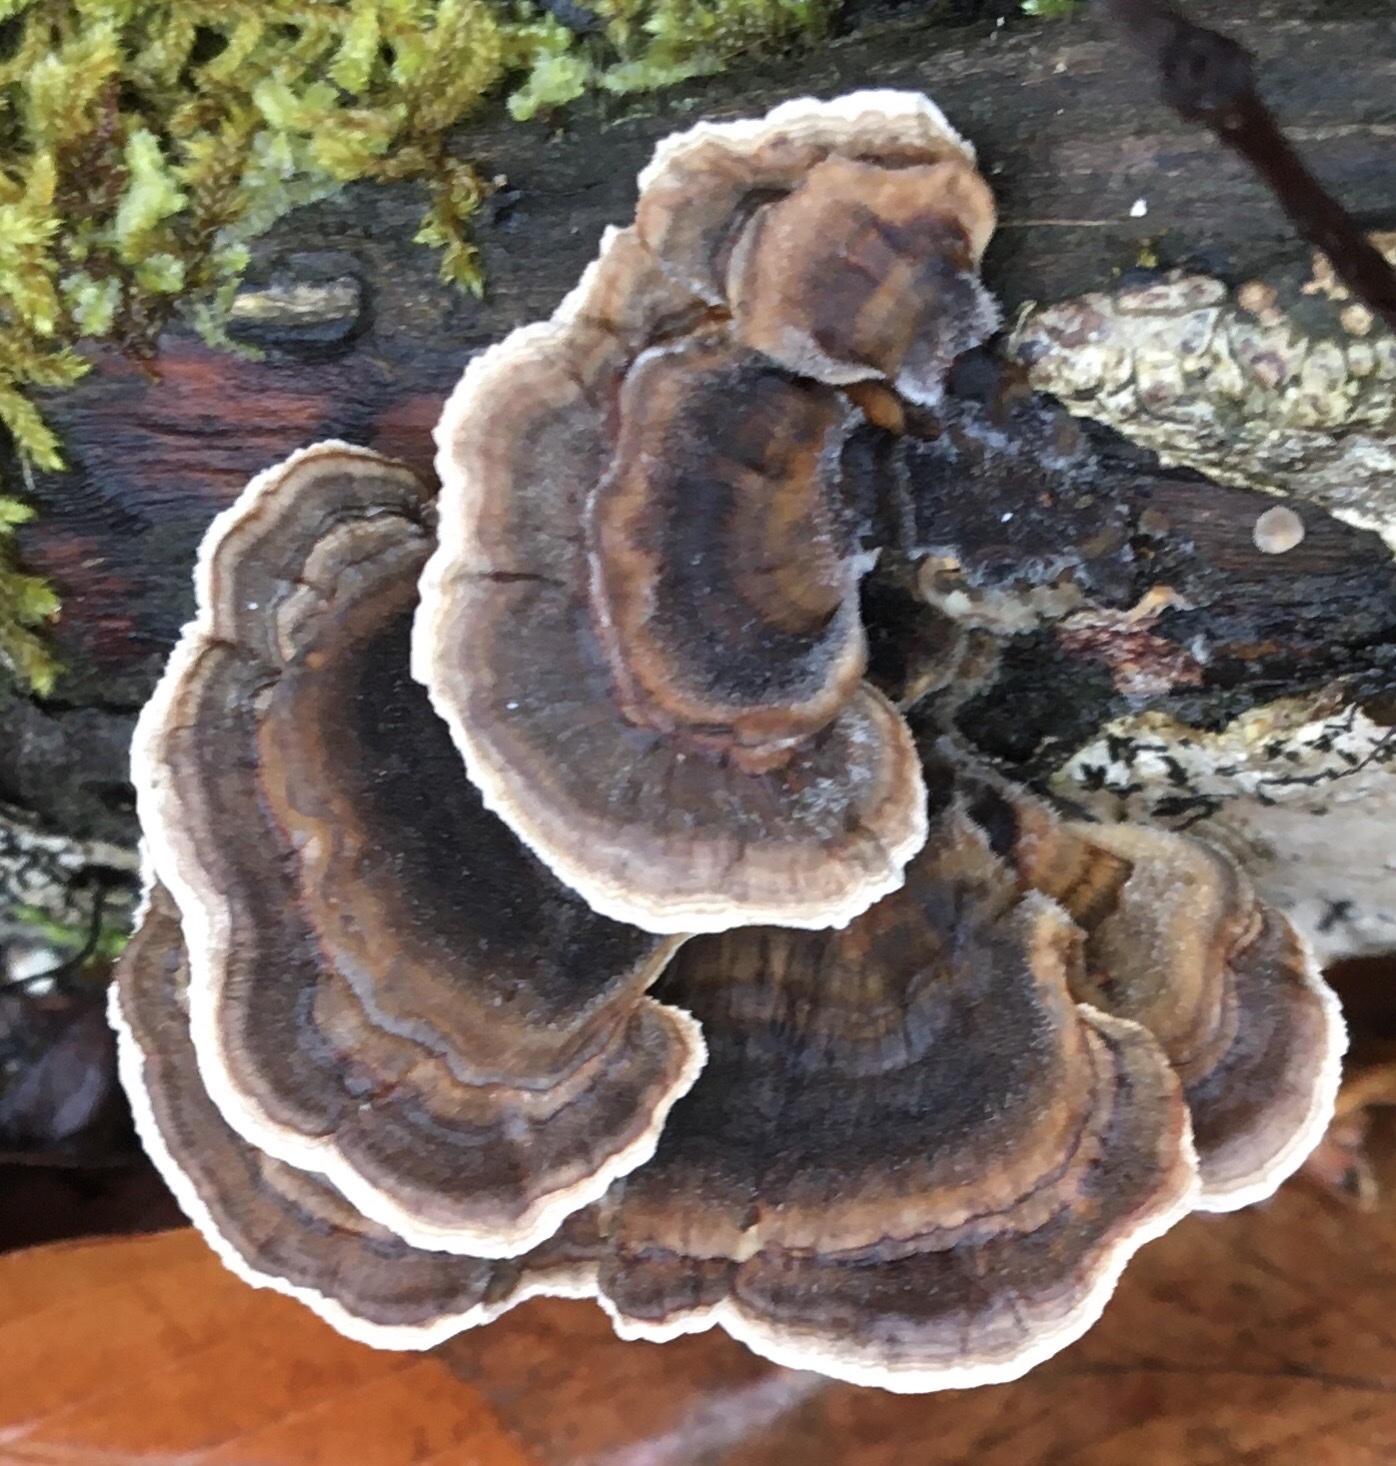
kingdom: Fungi
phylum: Basidiomycota
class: Agaricomycetes
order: Polyporales
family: Polyporaceae
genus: Trametes
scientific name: Trametes versicolor
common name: Turkeytail
